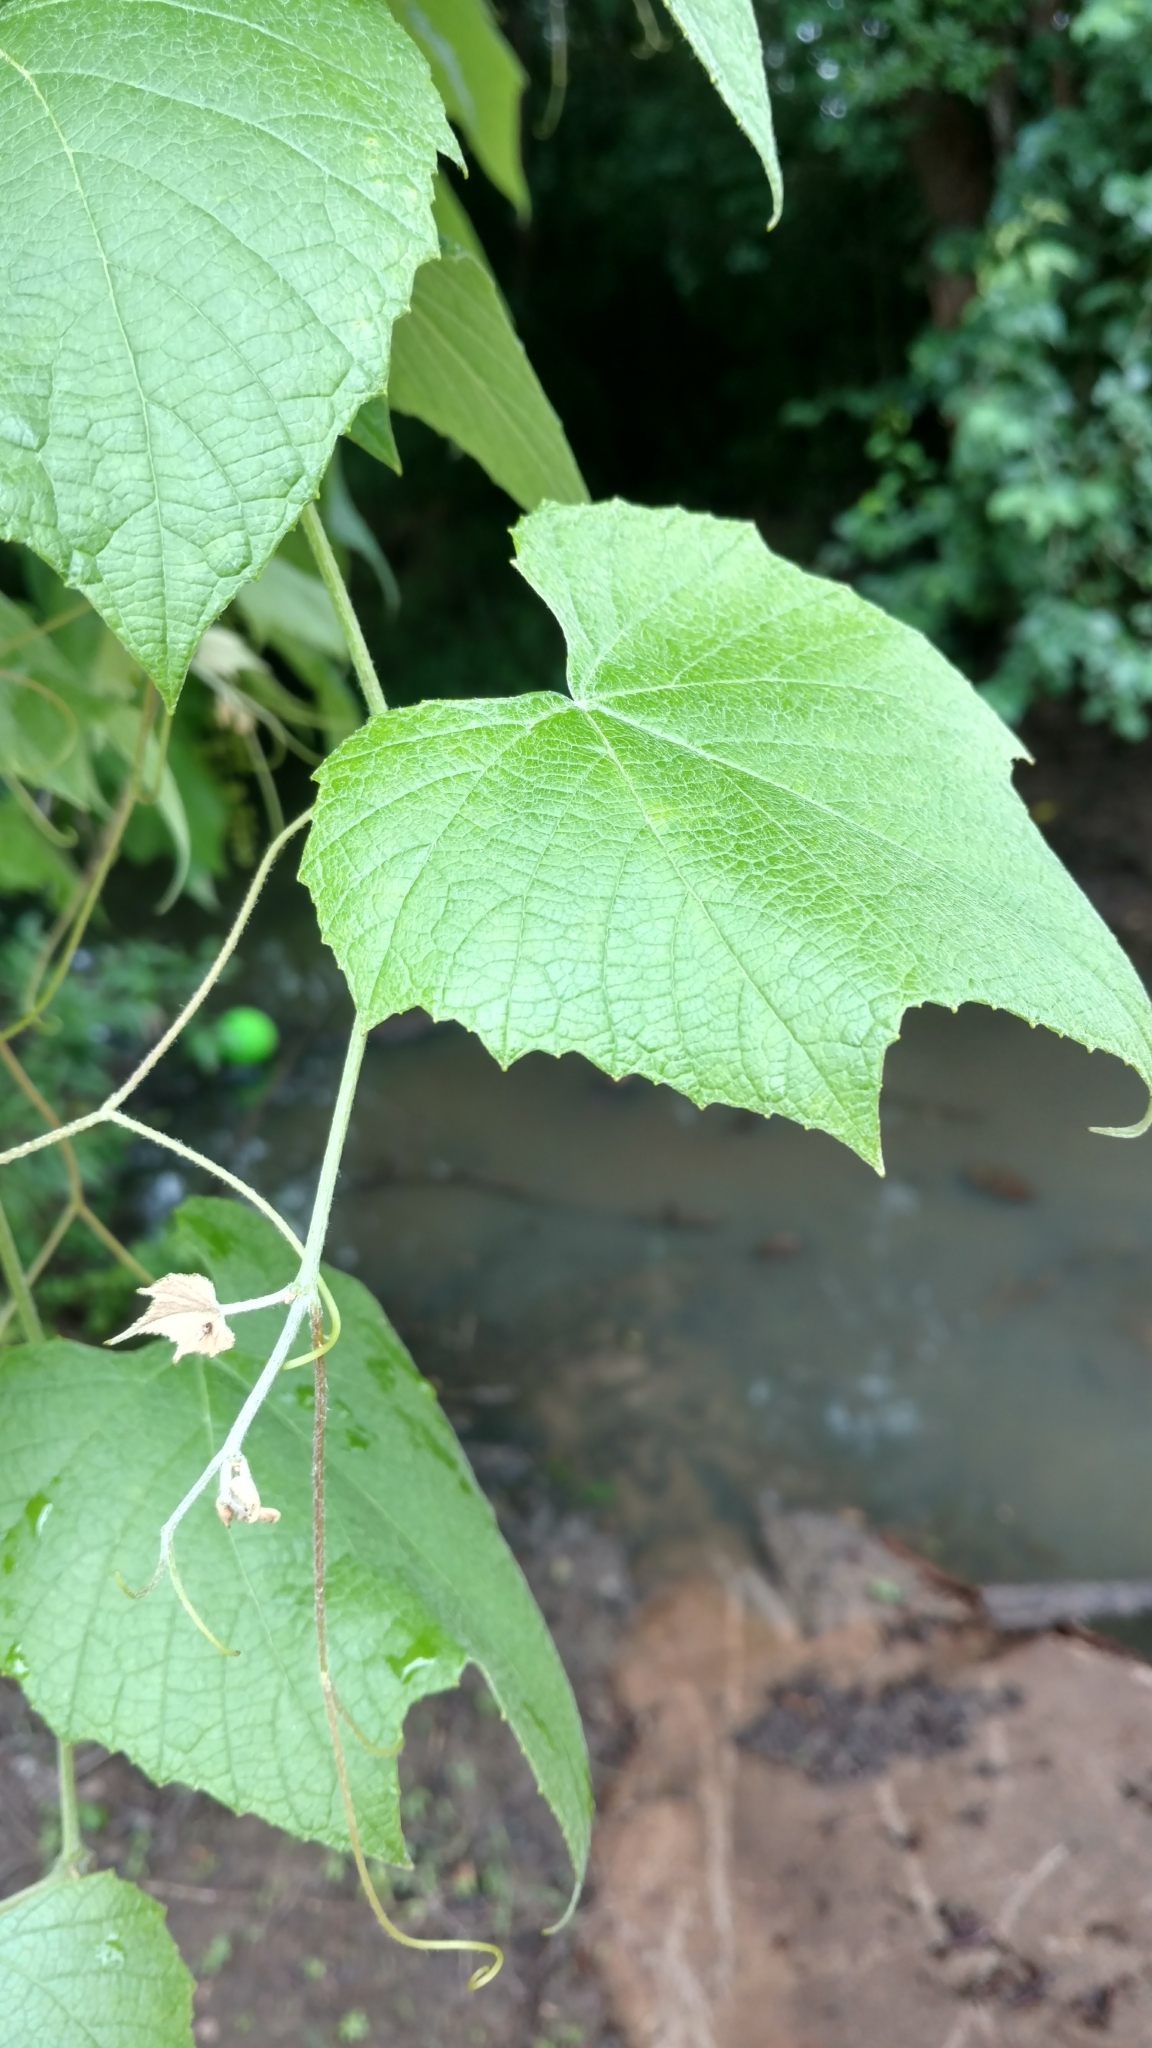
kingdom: Plantae
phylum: Tracheophyta
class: Magnoliopsida
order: Vitales
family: Vitaceae
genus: Vitis
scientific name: Vitis cinerea
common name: Ashy grape
